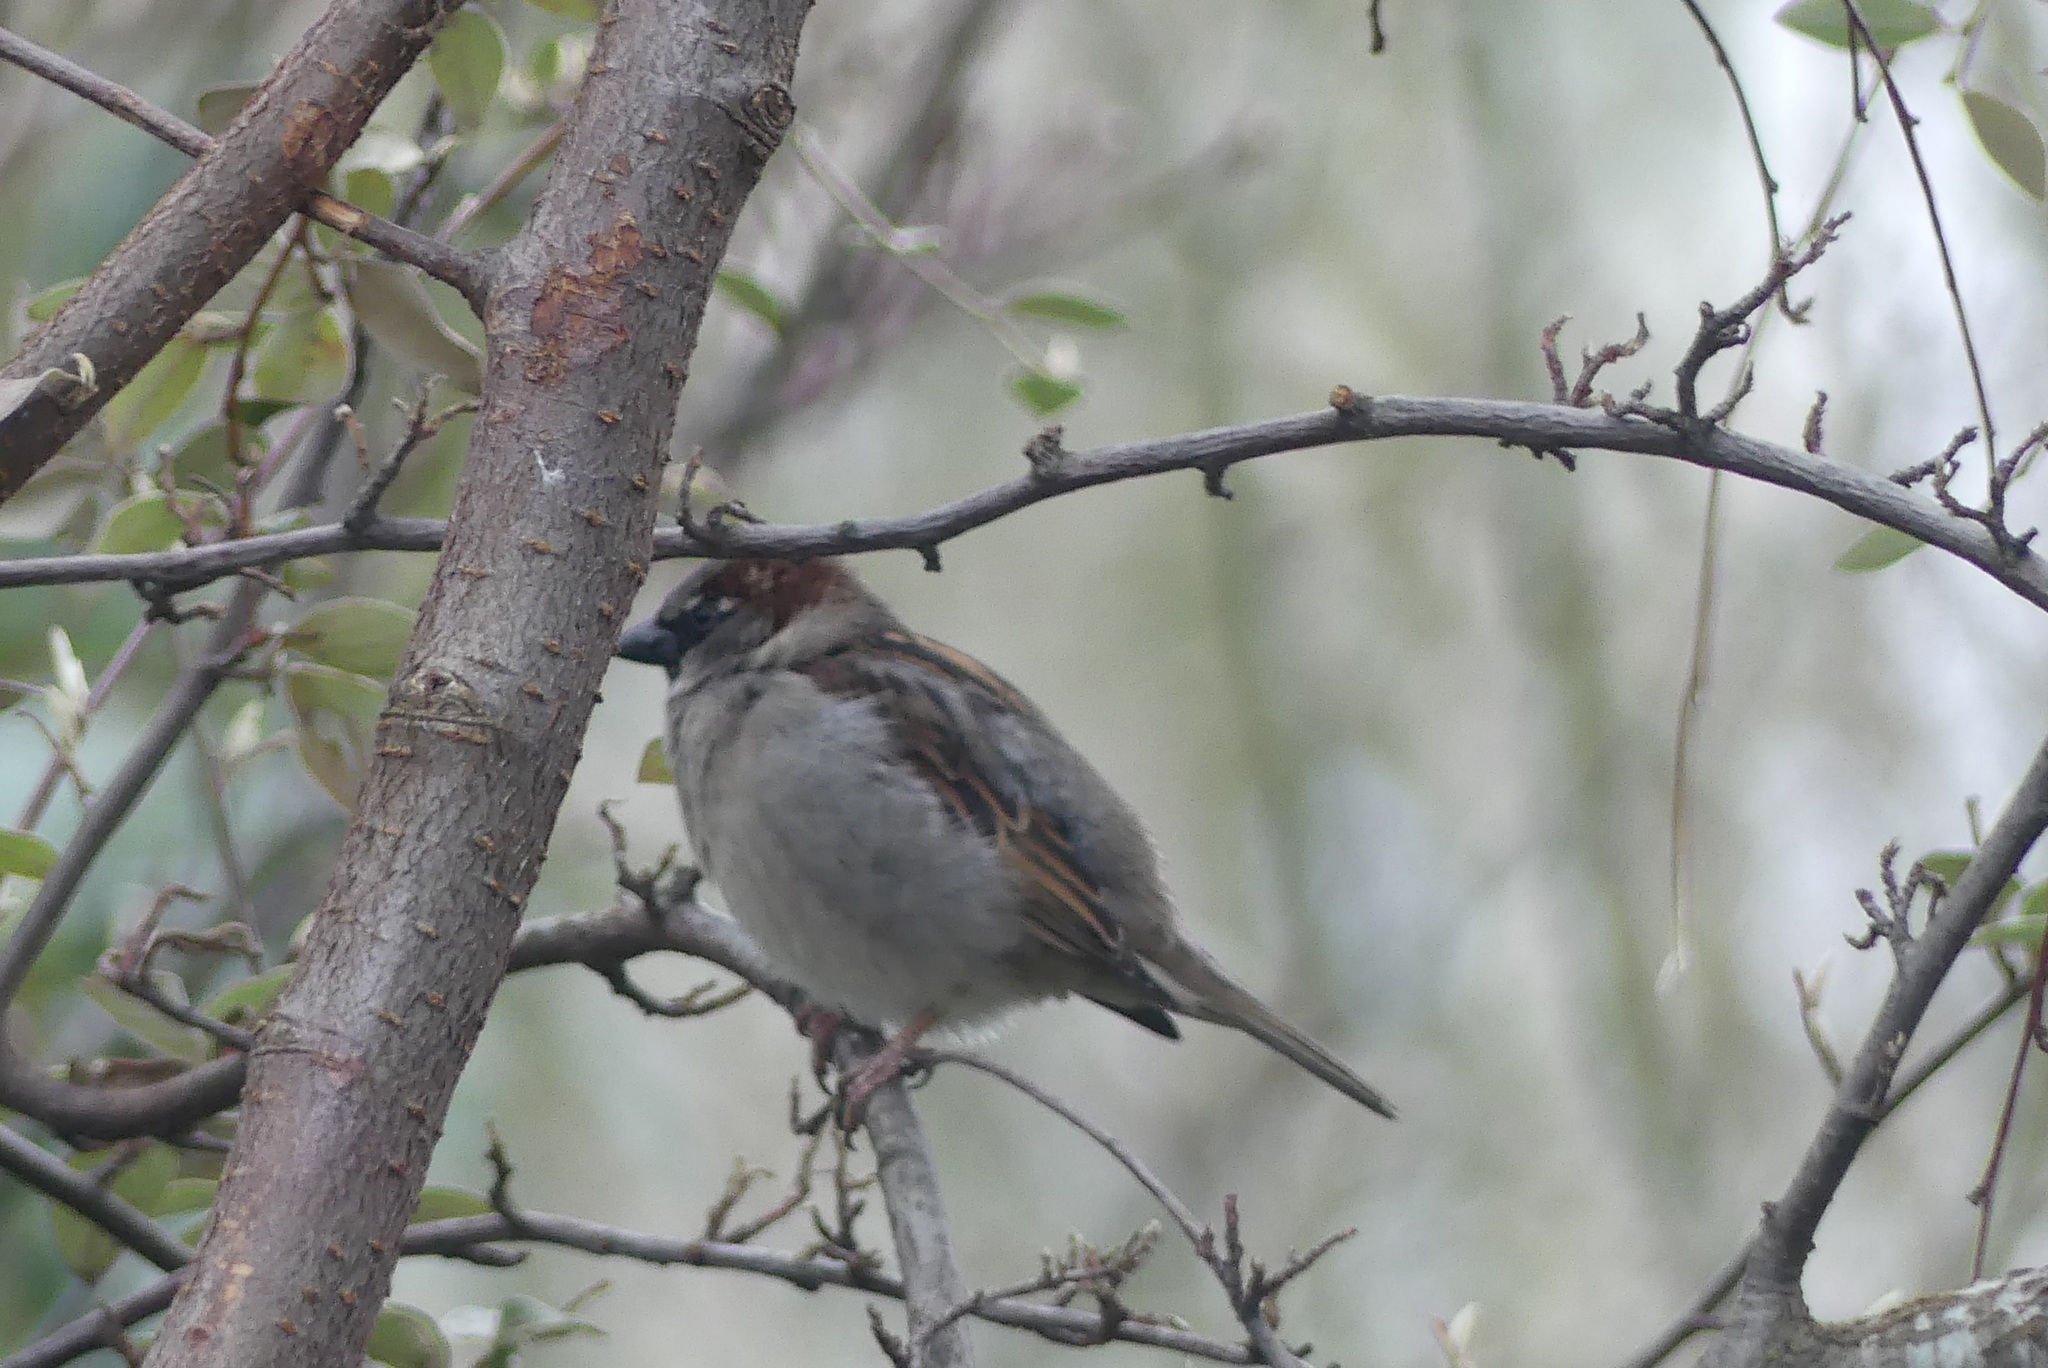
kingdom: Animalia
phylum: Chordata
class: Aves
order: Passeriformes
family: Passeridae
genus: Passer
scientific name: Passer domesticus
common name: House sparrow
